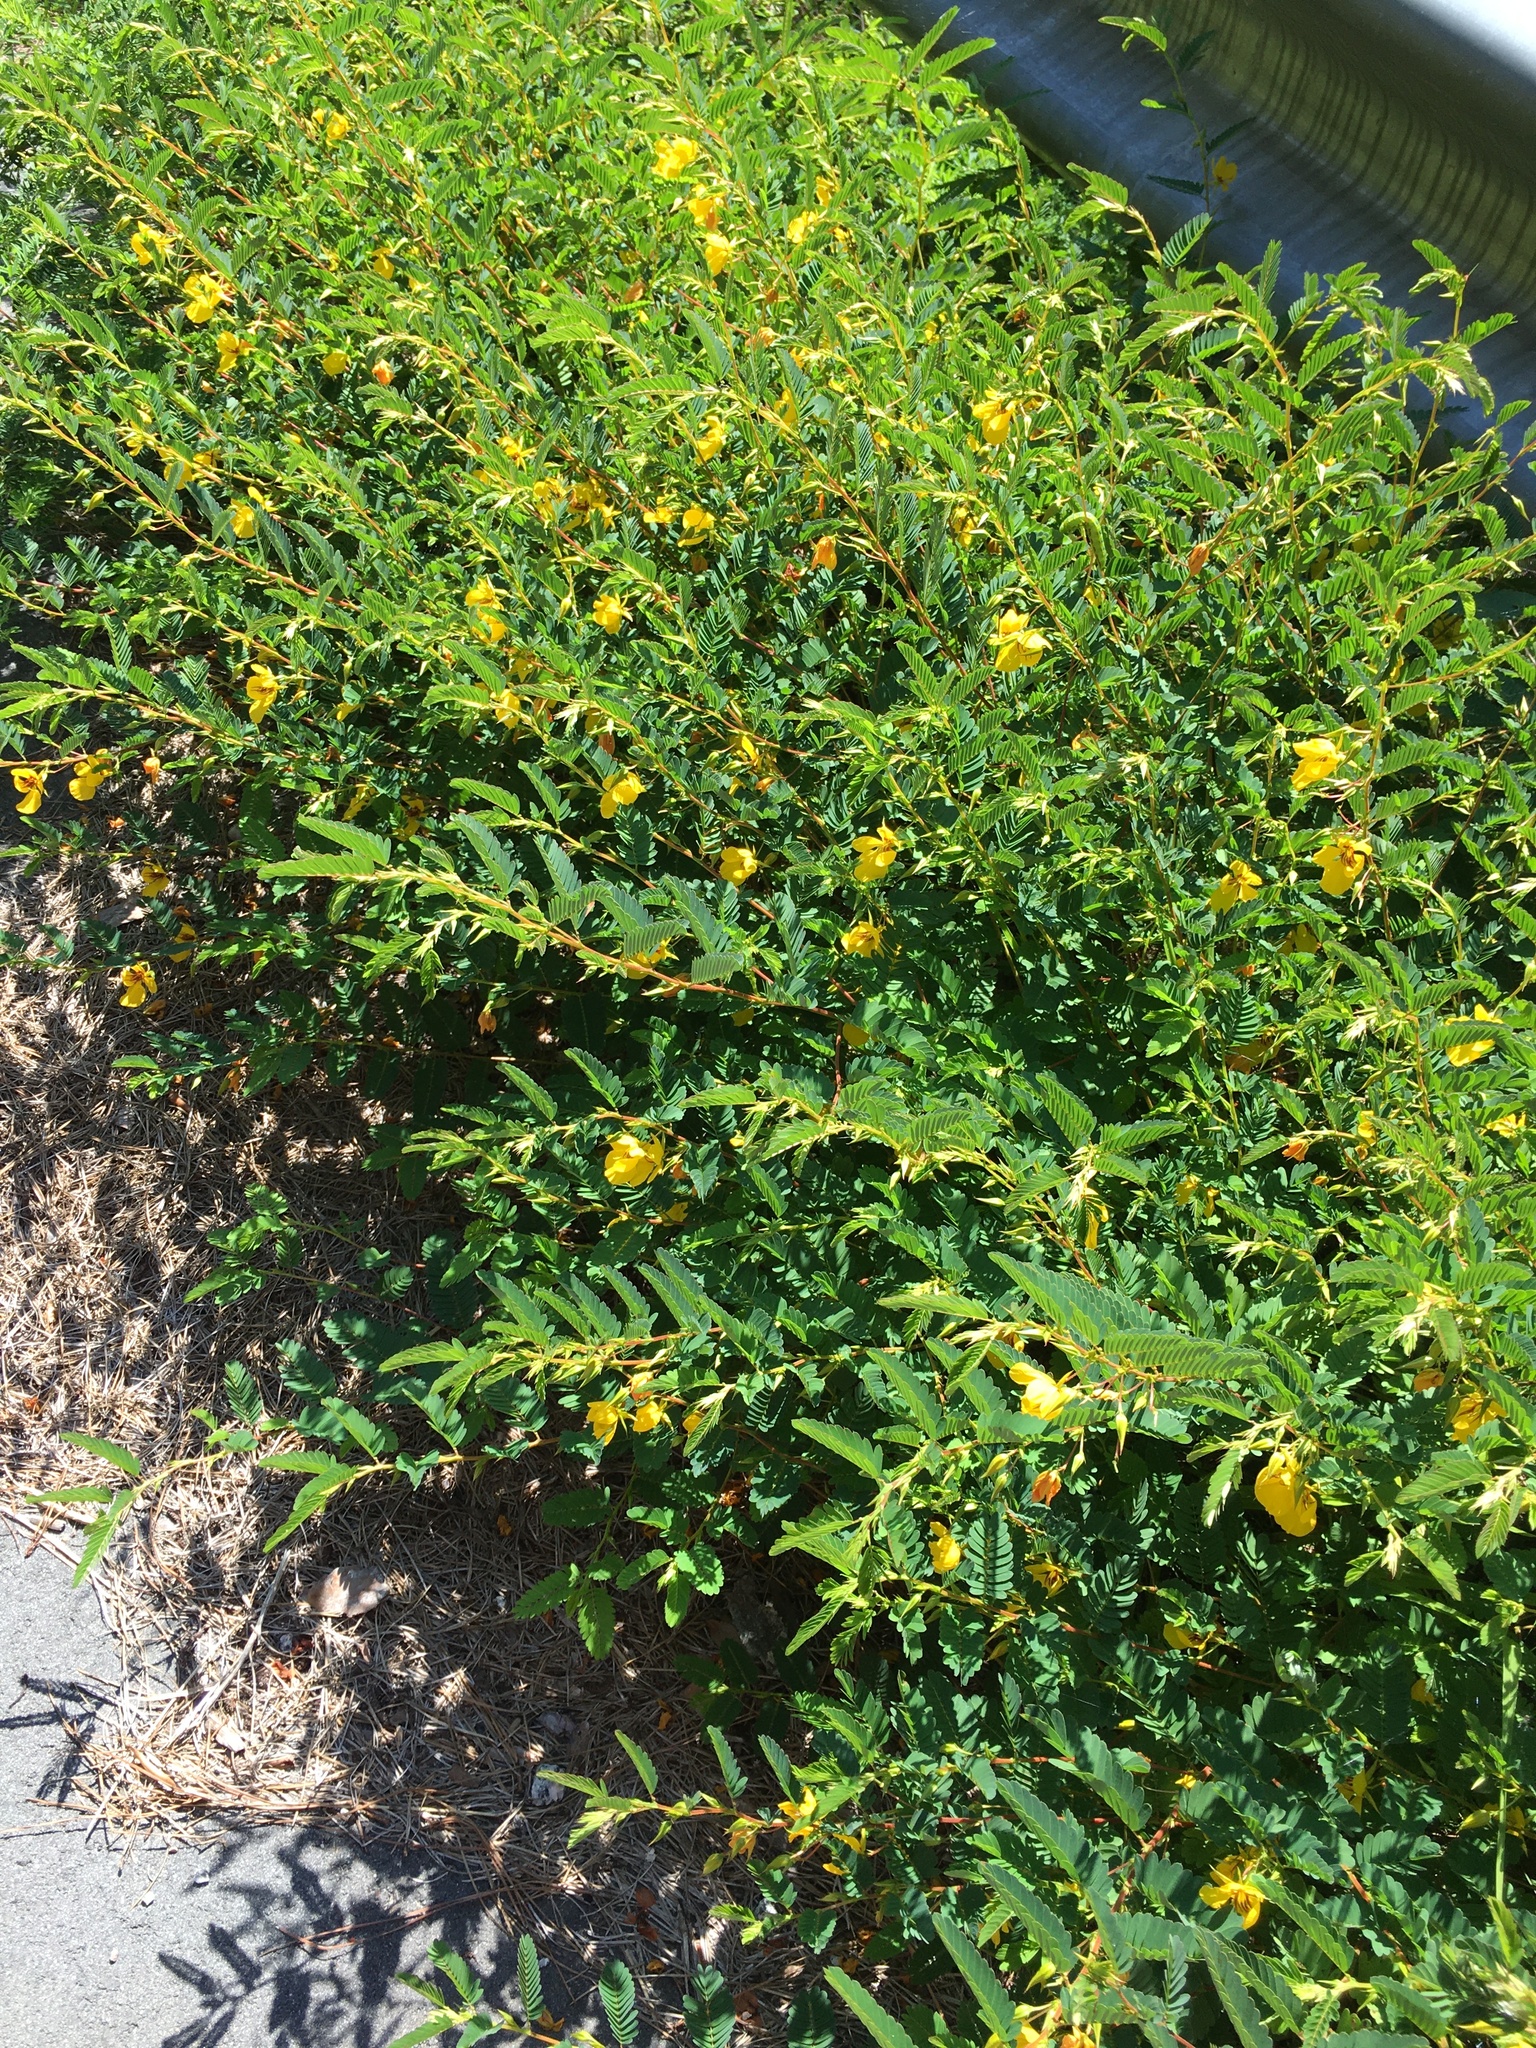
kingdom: Plantae
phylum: Tracheophyta
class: Magnoliopsida
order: Fabales
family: Fabaceae
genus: Chamaecrista
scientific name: Chamaecrista fasciculata
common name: Golden cassia
